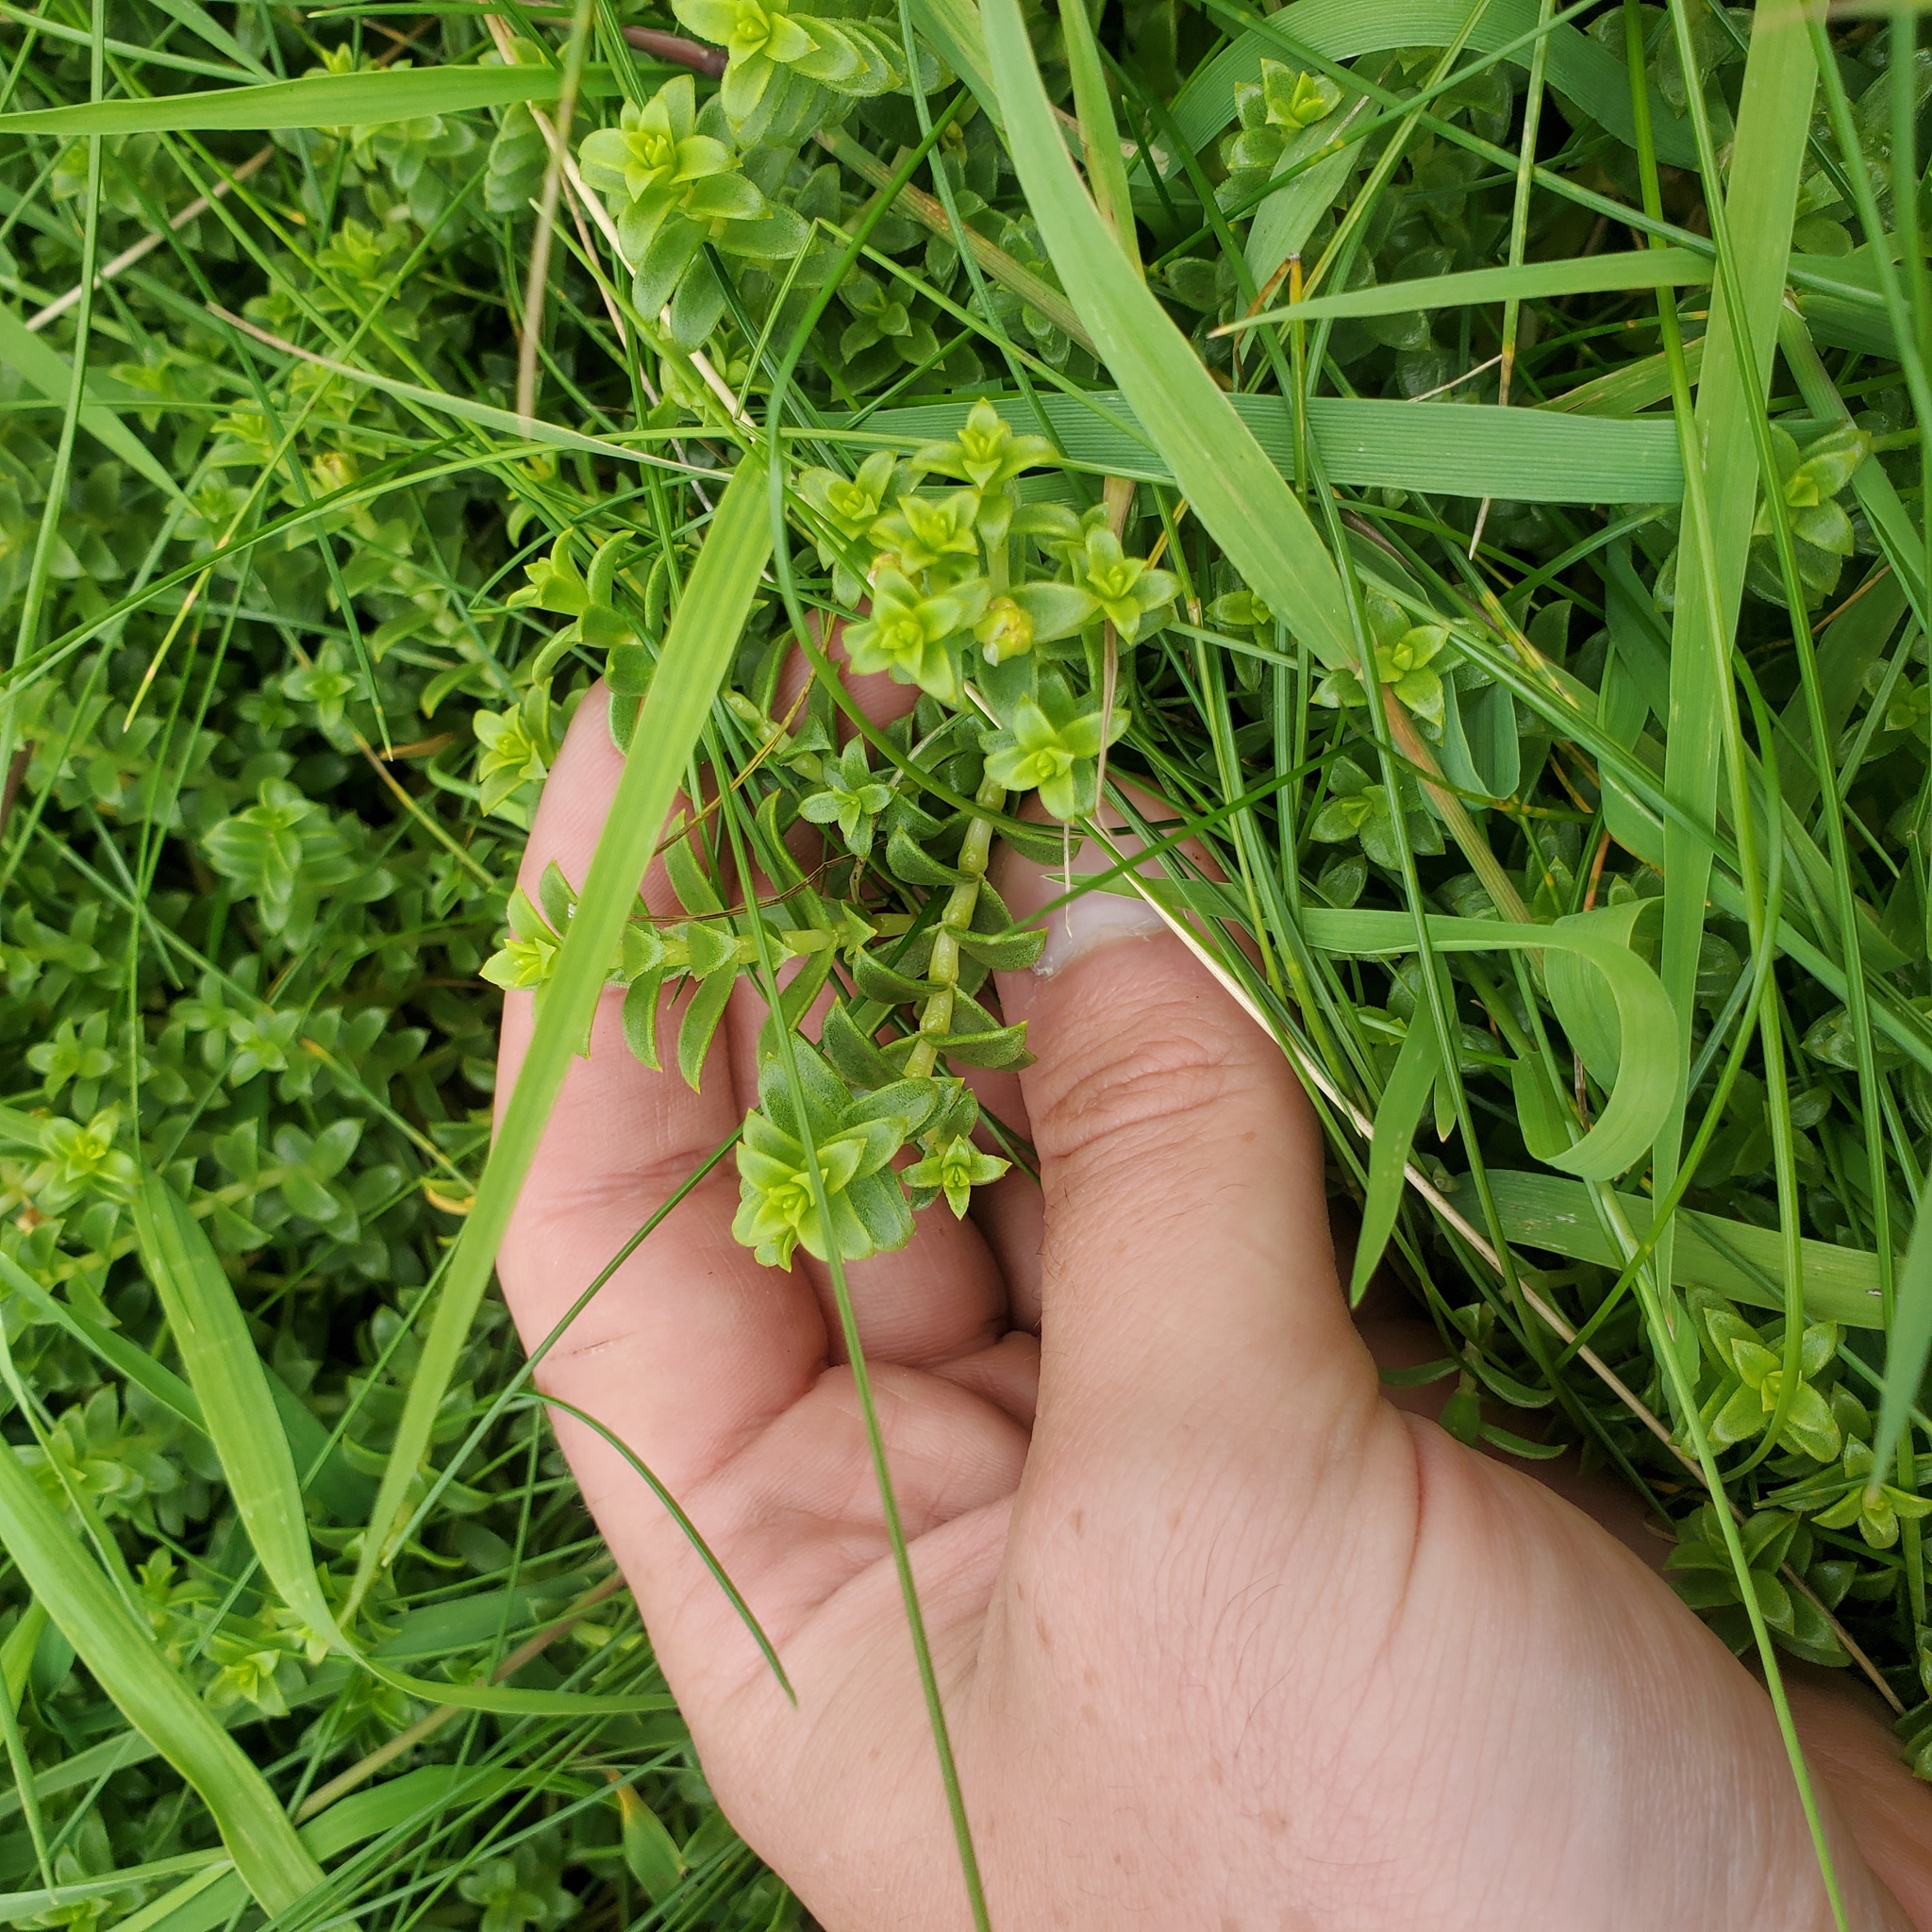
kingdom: Plantae
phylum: Tracheophyta
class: Magnoliopsida
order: Caryophyllales
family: Caryophyllaceae
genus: Honckenya
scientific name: Honckenya peploides
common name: Sea sandwort
